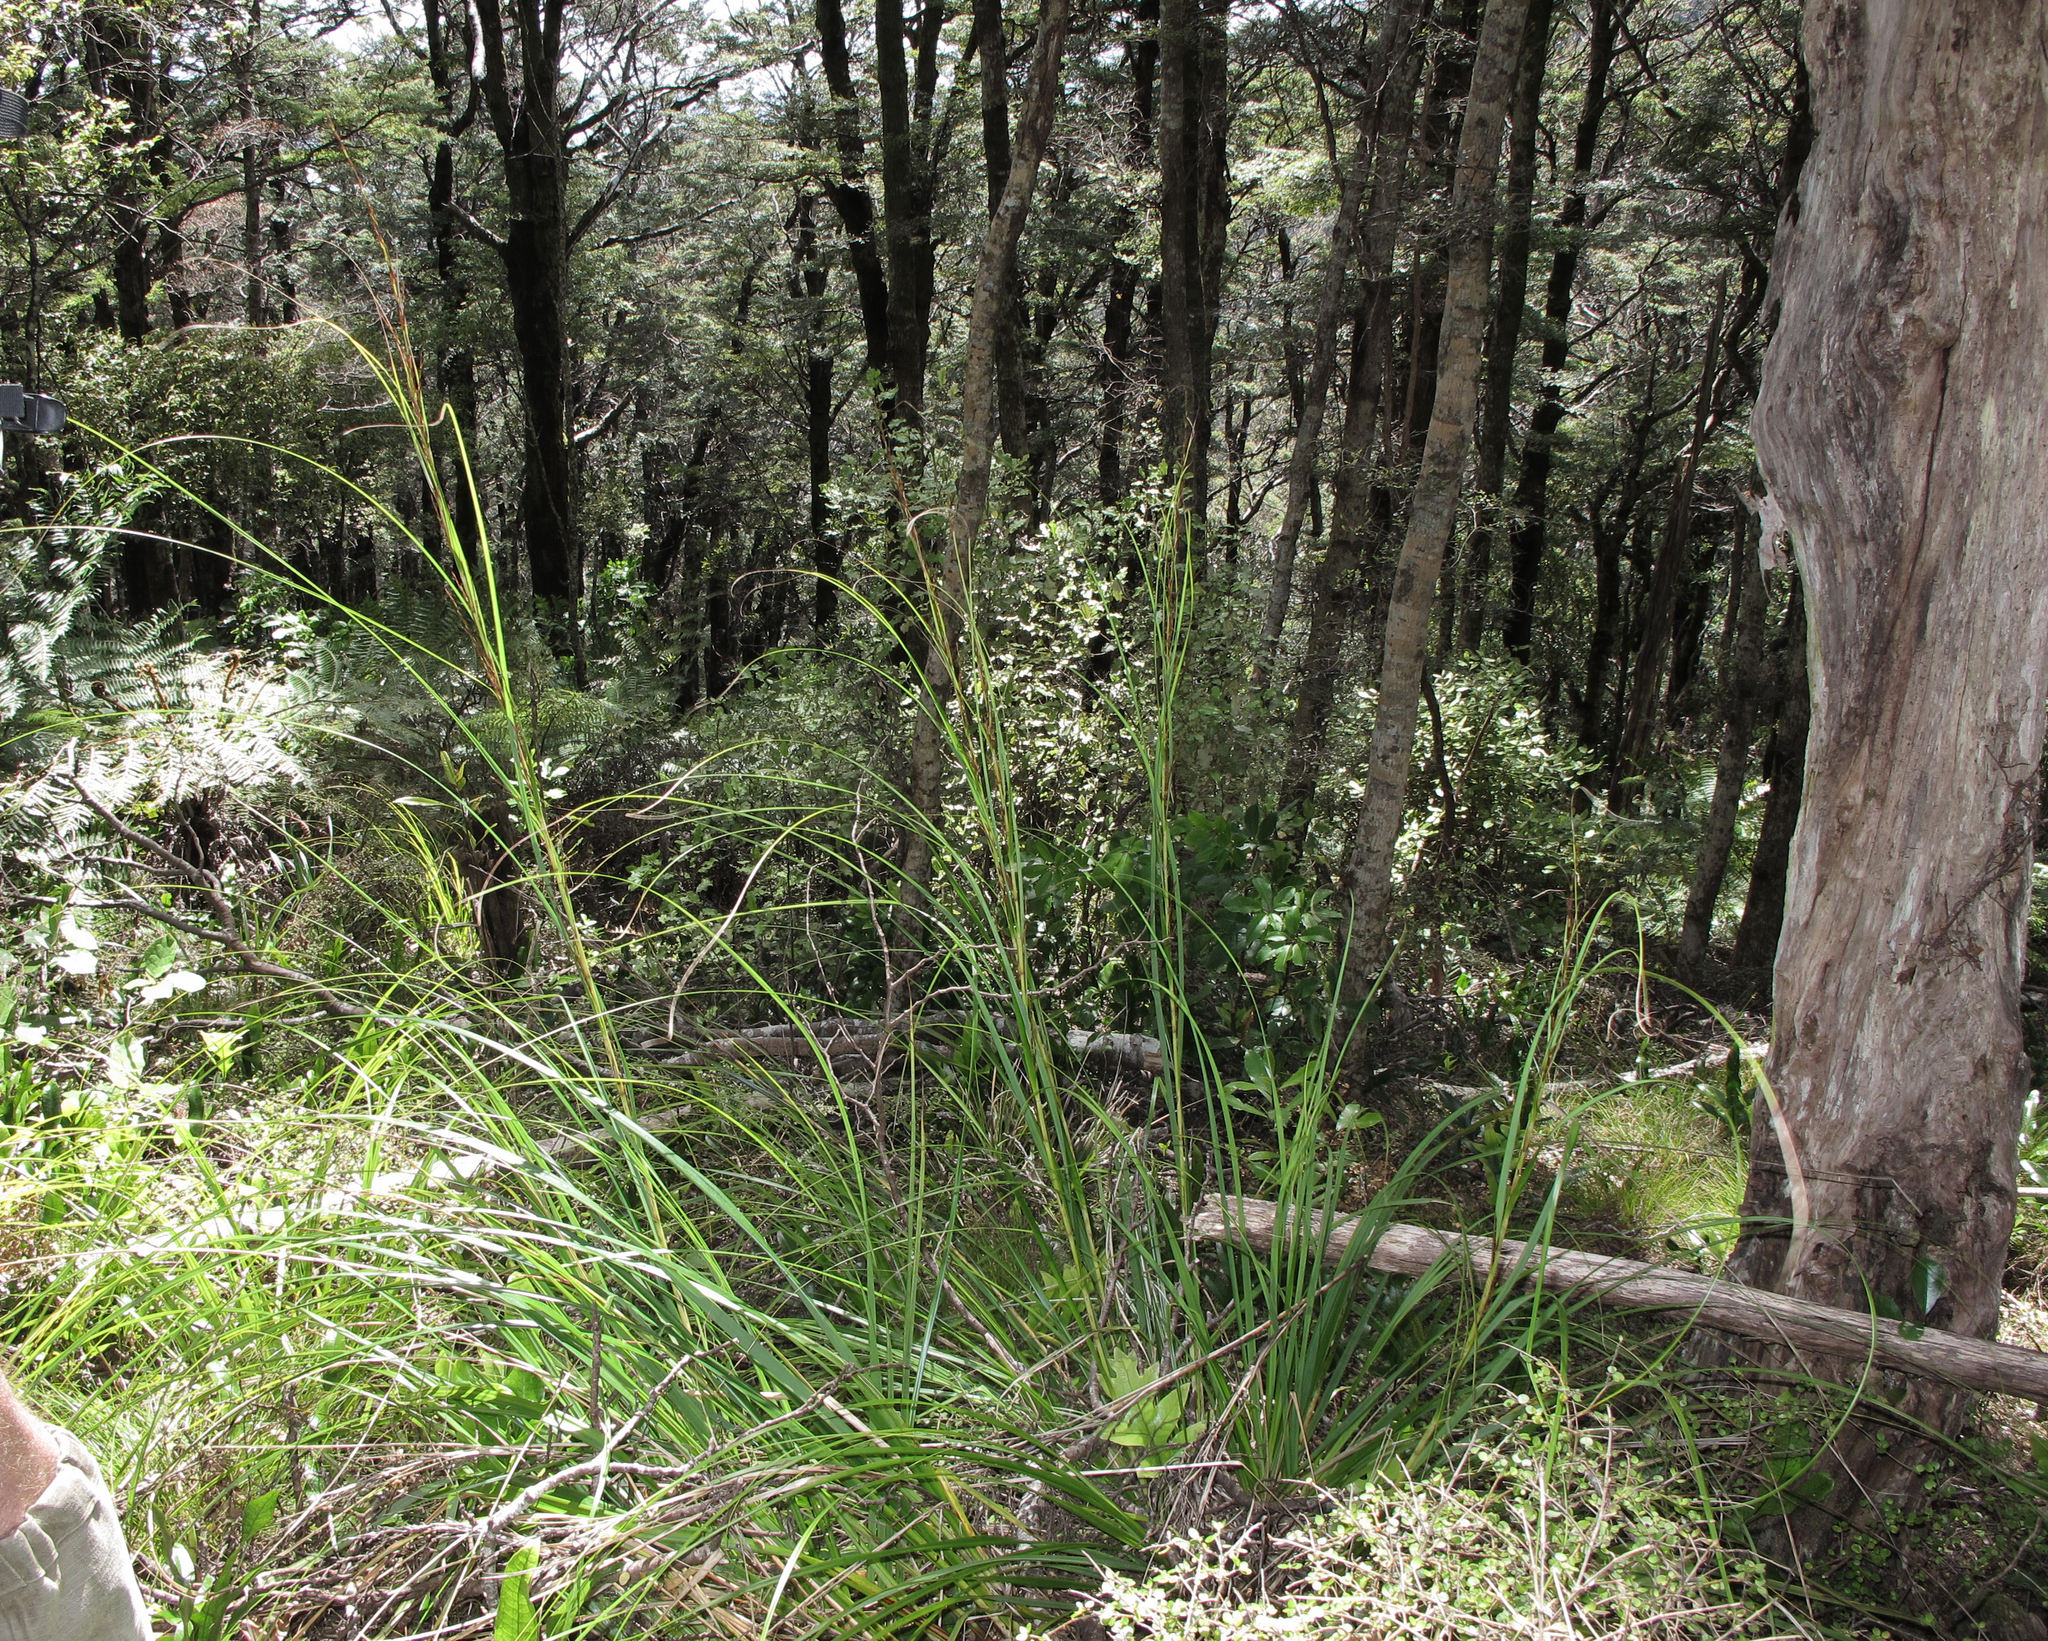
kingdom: Plantae
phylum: Tracheophyta
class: Liliopsida
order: Poales
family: Cyperaceae
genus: Gahnia
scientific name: Gahnia pauciflora
